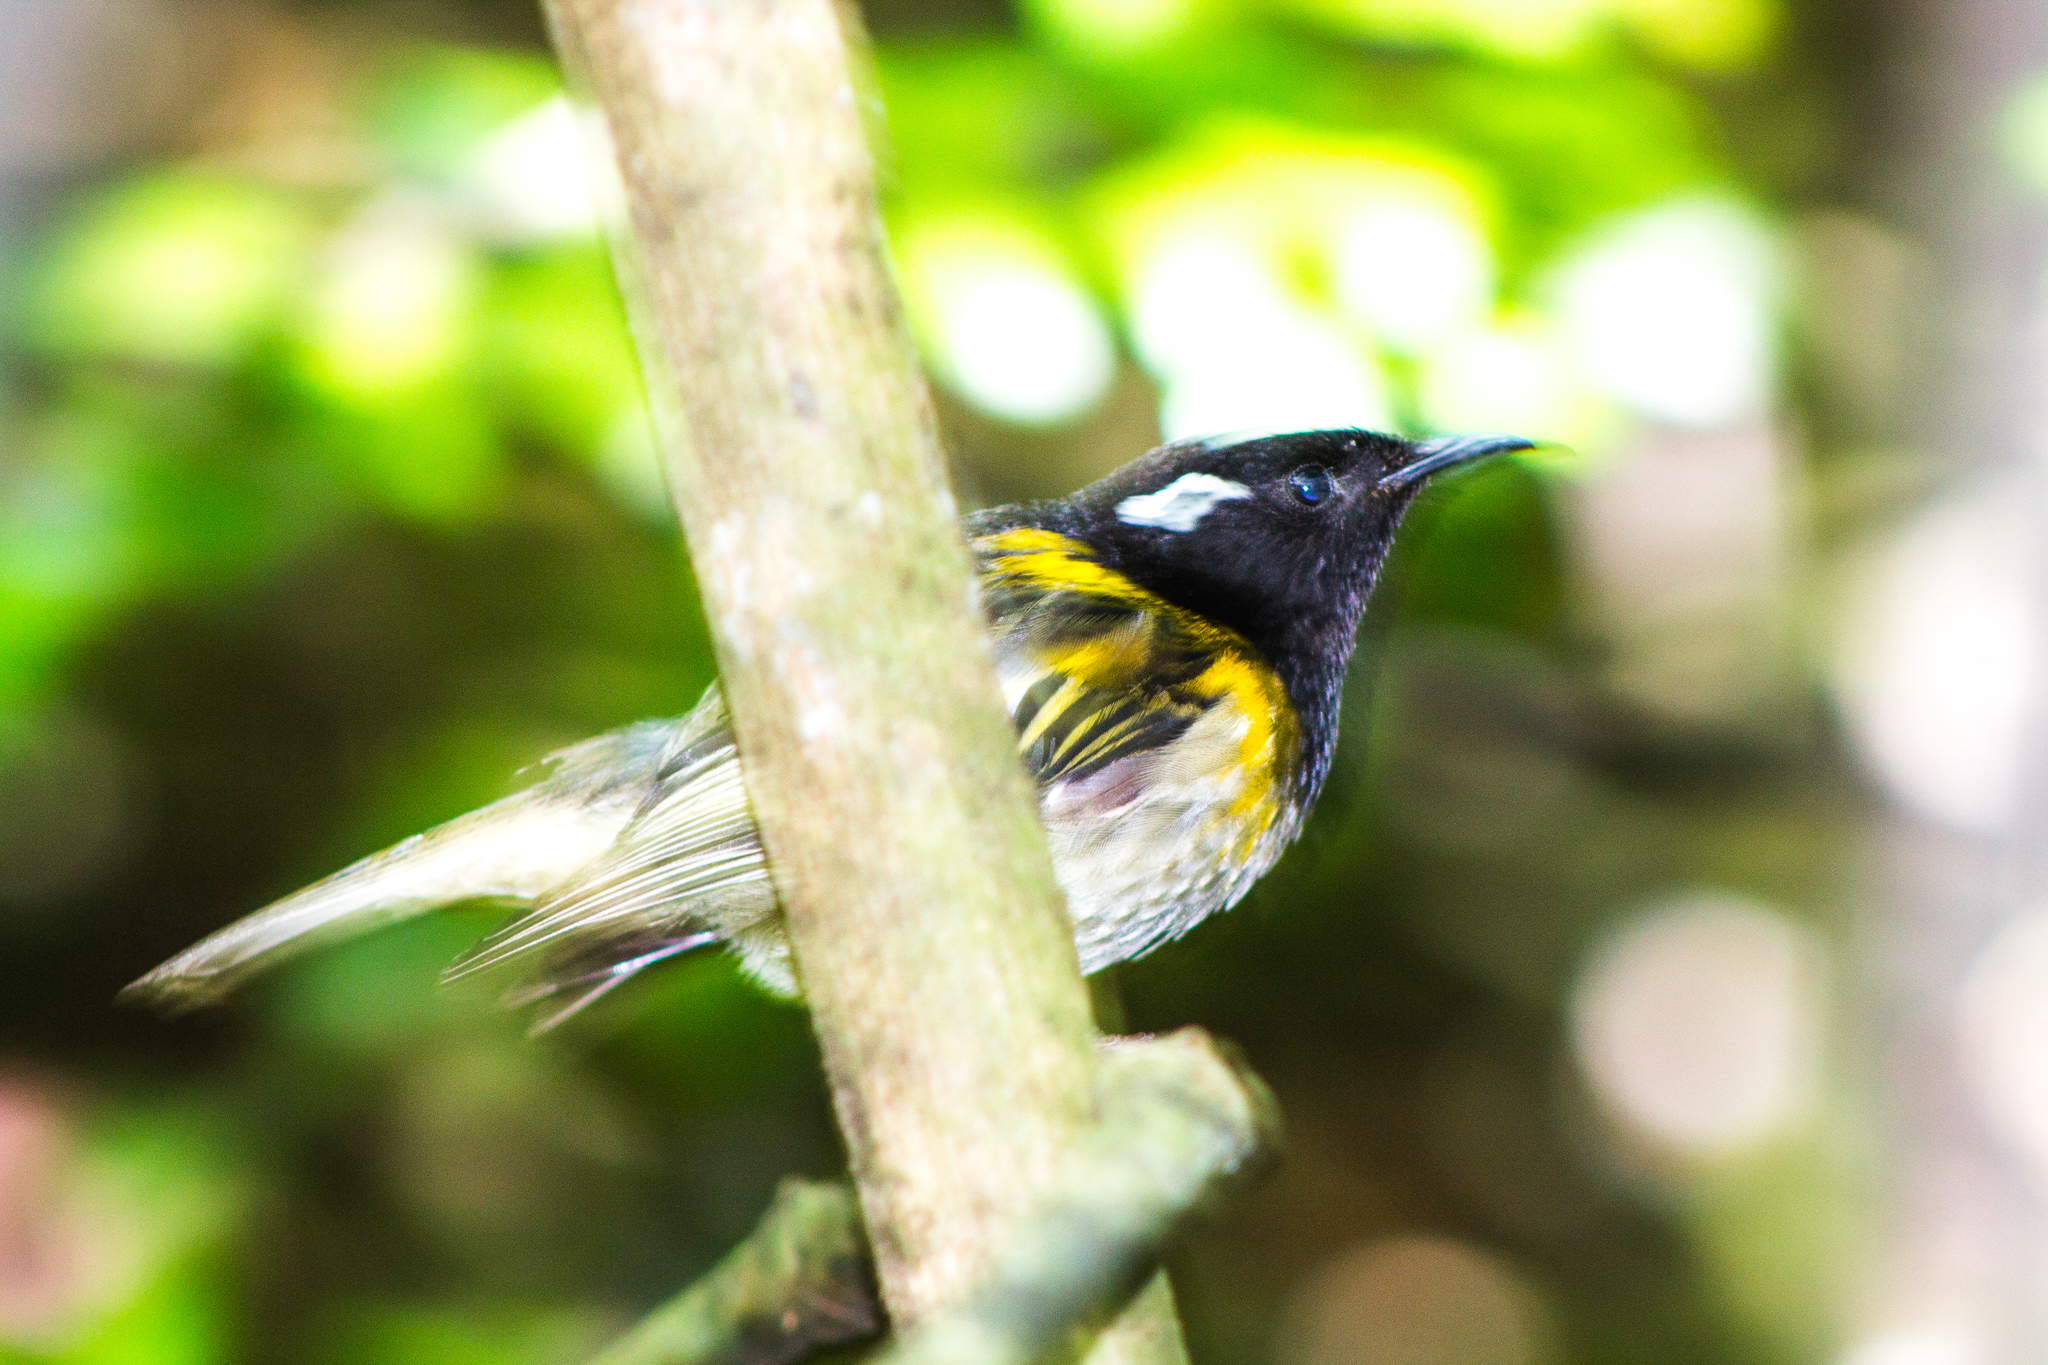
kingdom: Animalia
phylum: Chordata
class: Aves
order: Passeriformes
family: Notiomystidae
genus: Notiomystis
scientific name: Notiomystis cincta
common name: Stitchbird
